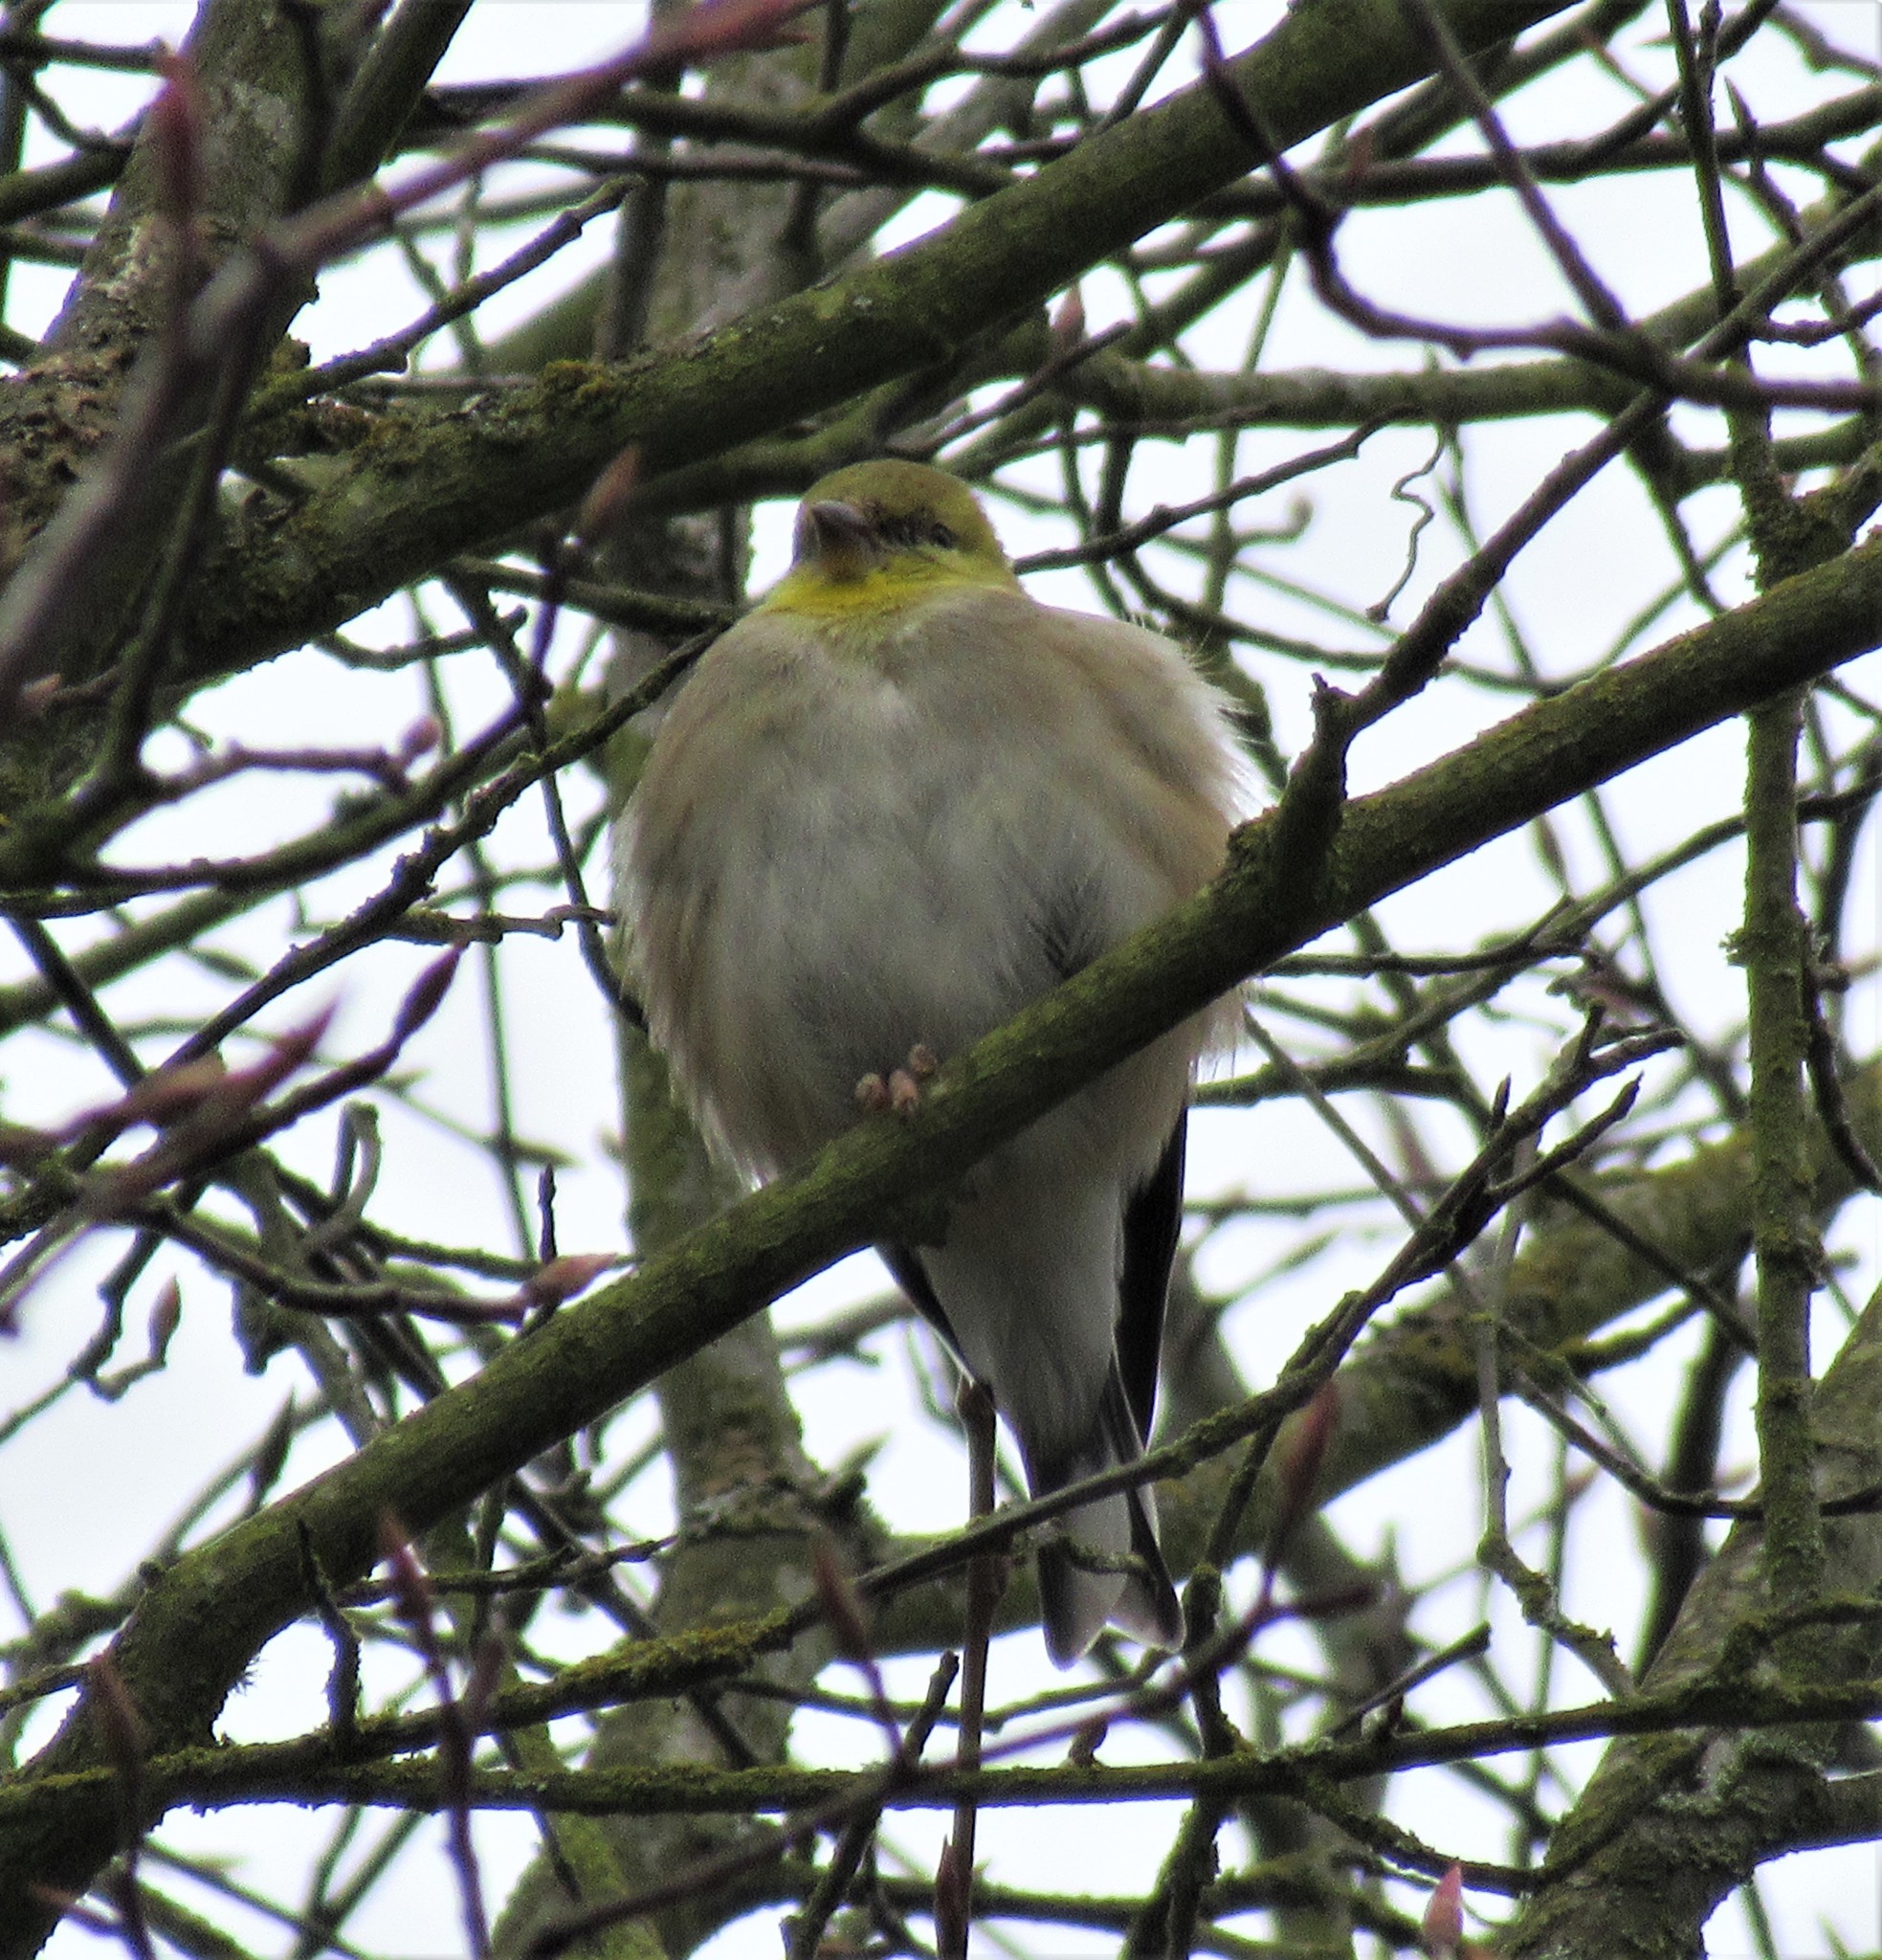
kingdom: Animalia
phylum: Chordata
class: Aves
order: Passeriformes
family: Fringillidae
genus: Spinus
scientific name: Spinus tristis
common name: American goldfinch
